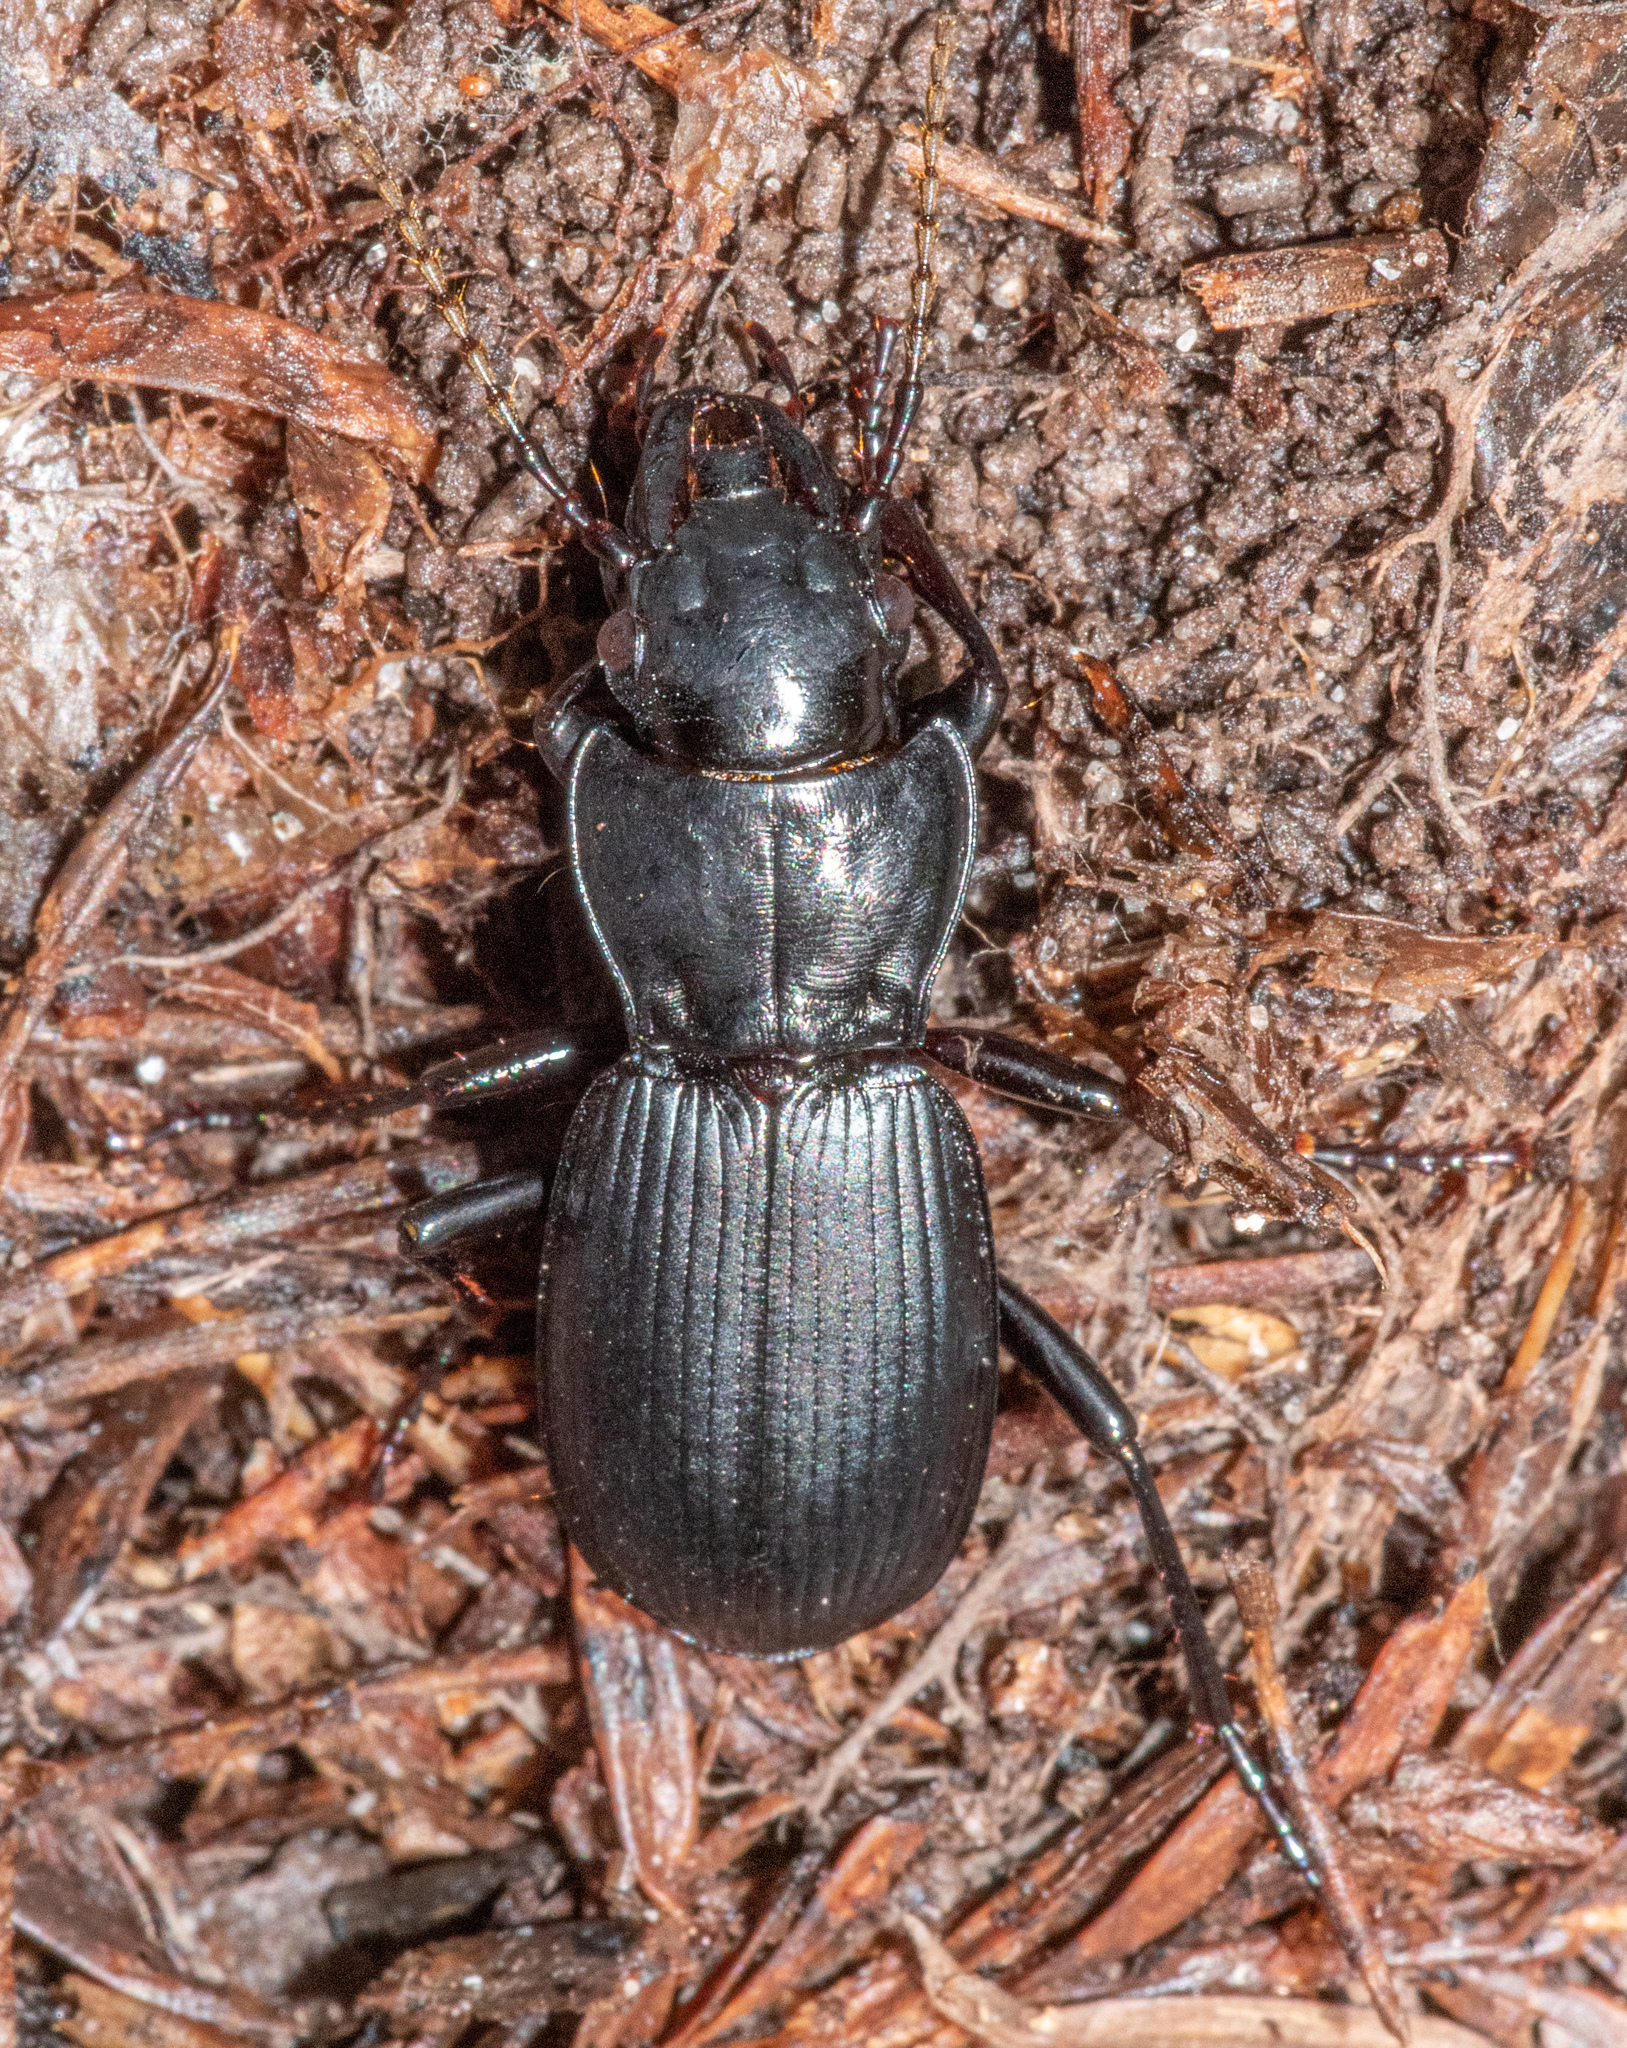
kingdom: Animalia
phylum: Arthropoda
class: Insecta
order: Coleoptera
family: Carabidae
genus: Pterostichus
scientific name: Pterostichus lama
